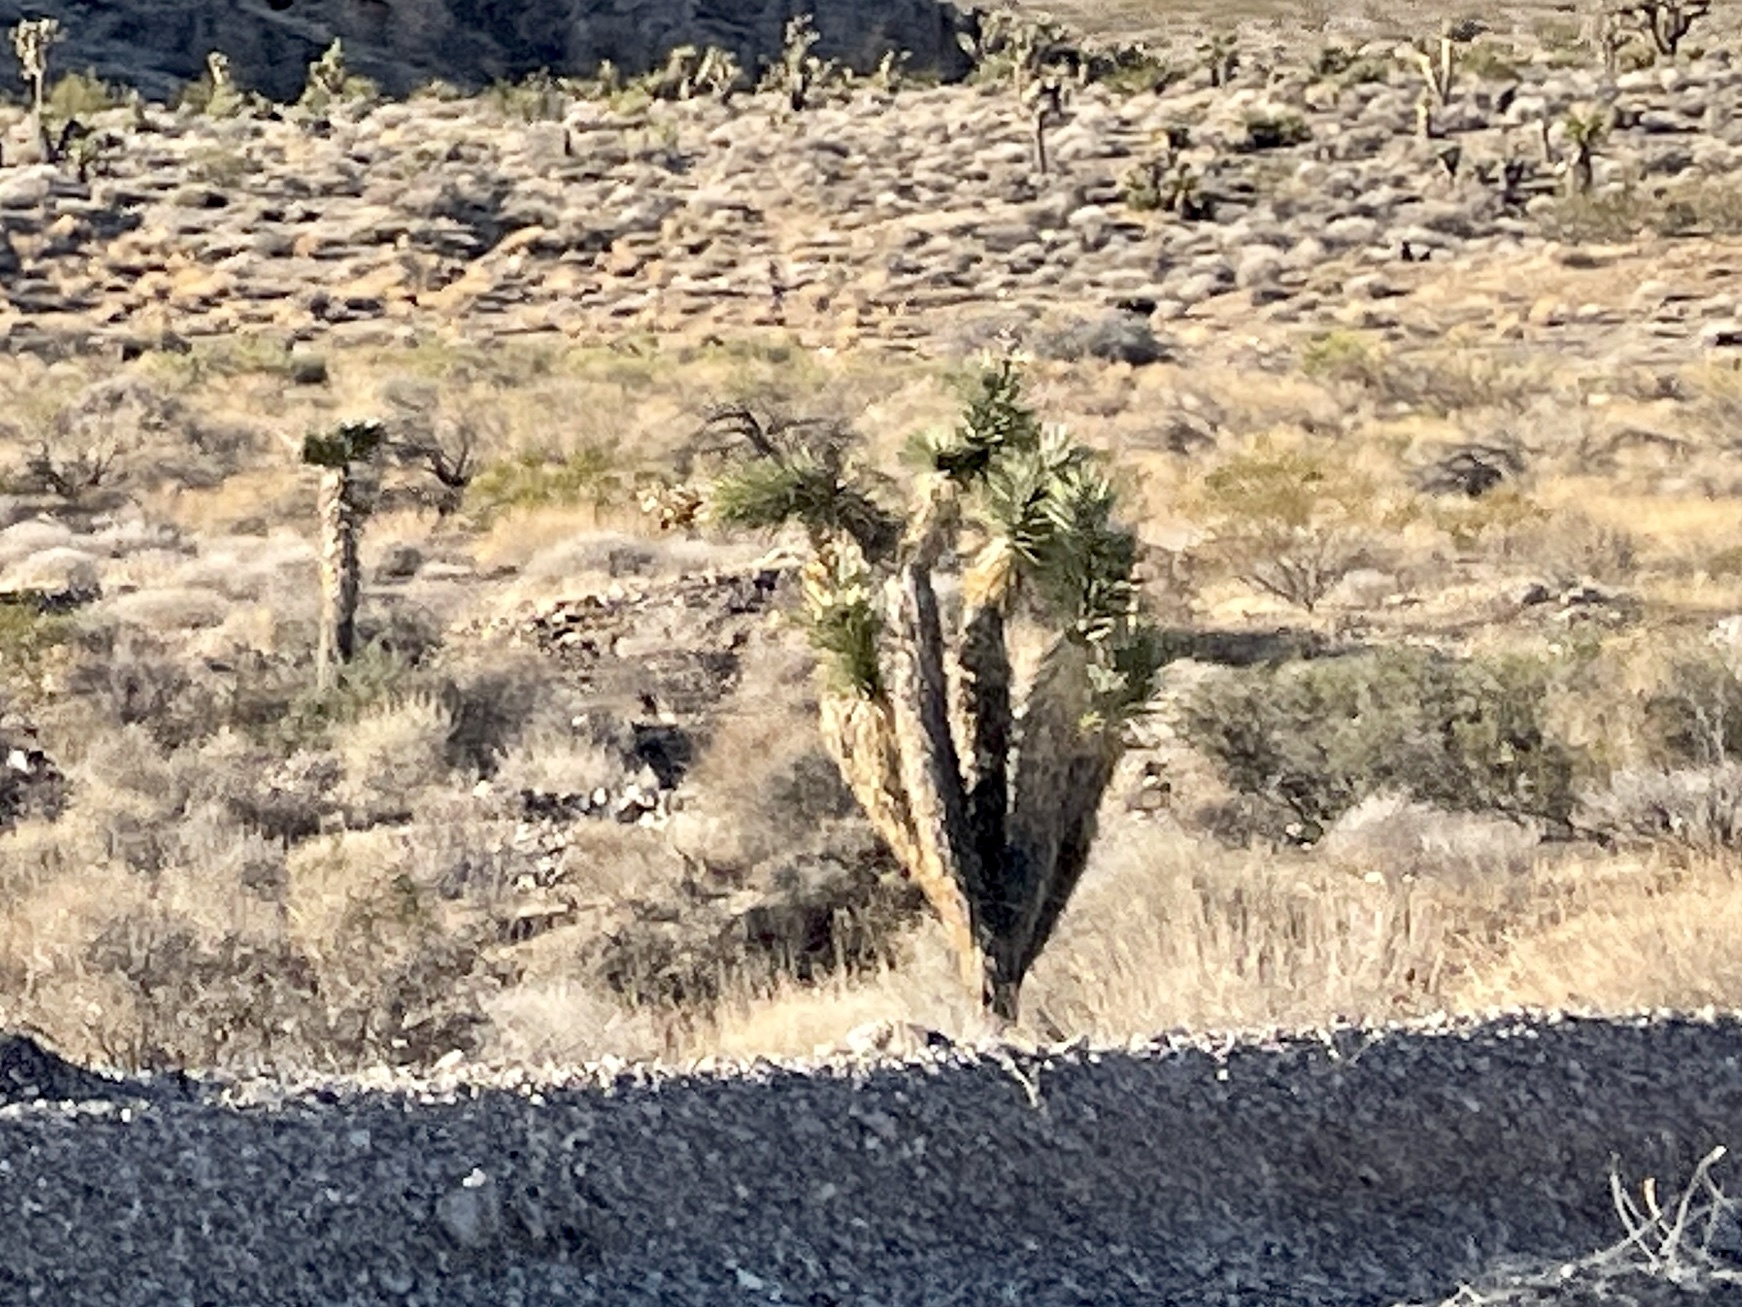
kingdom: Plantae
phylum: Tracheophyta
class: Liliopsida
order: Asparagales
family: Asparagaceae
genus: Yucca
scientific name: Yucca brevifolia
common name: Joshua tree
